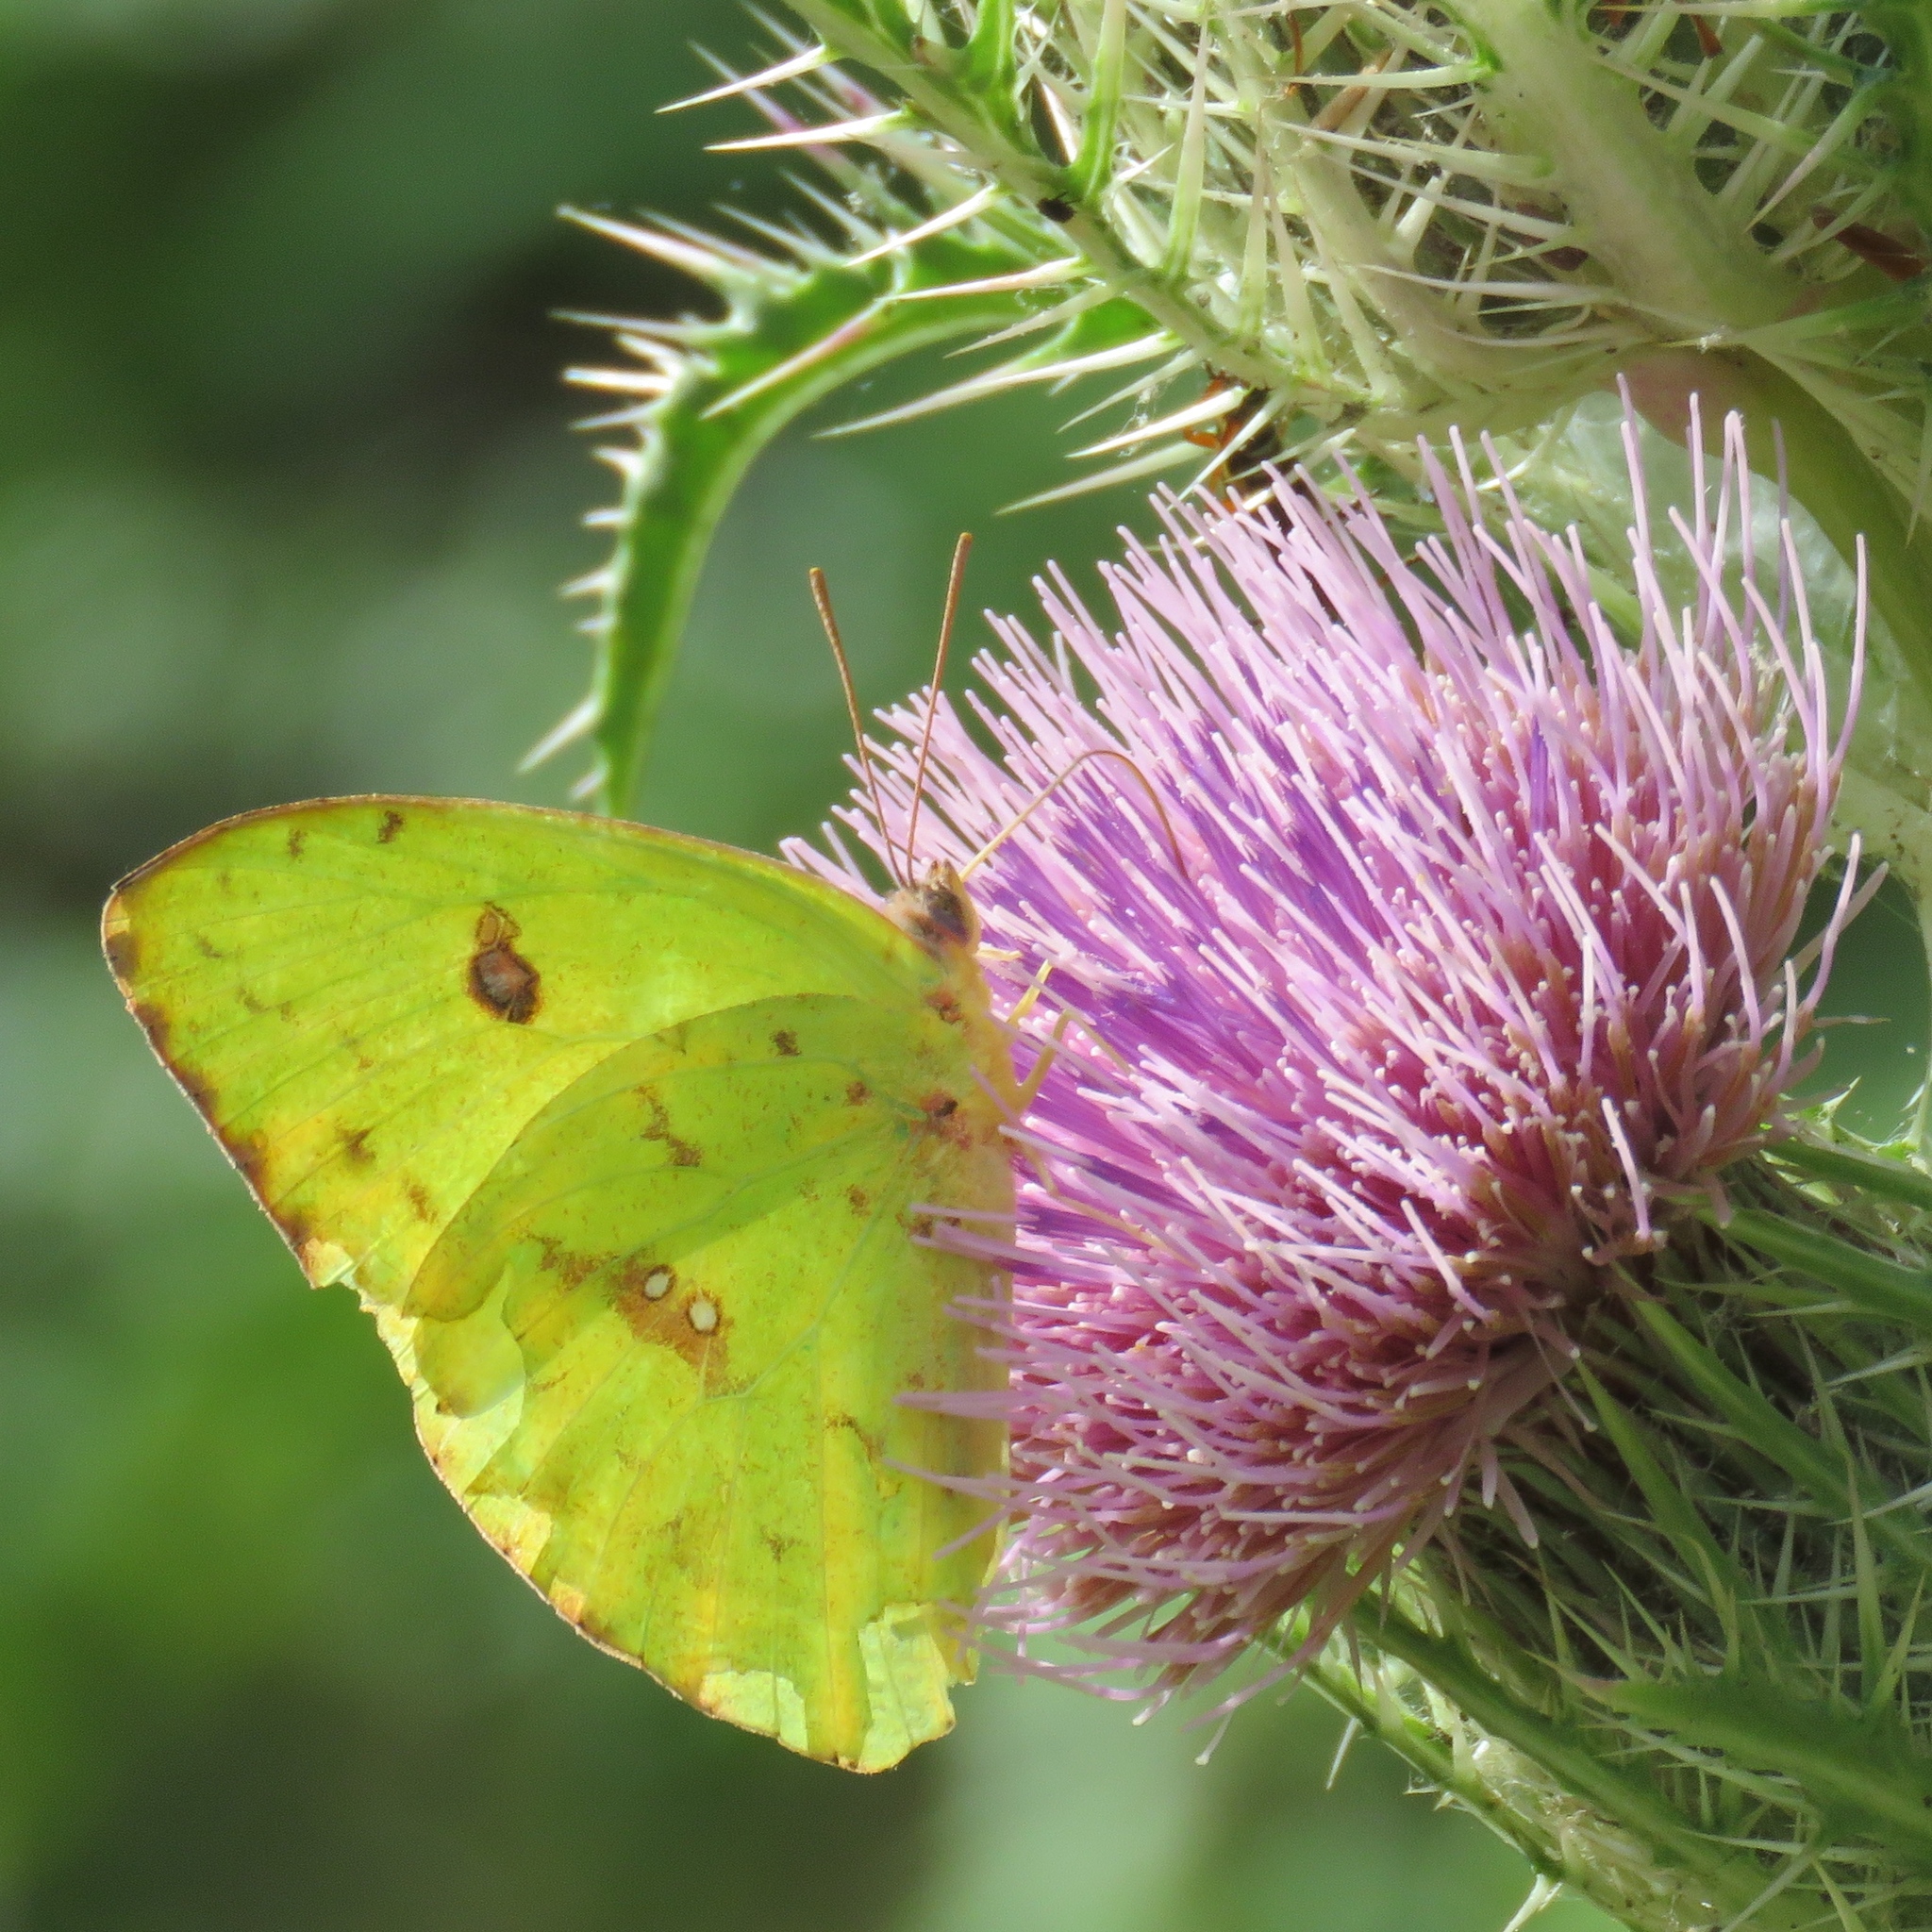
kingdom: Animalia
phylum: Arthropoda
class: Insecta
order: Lepidoptera
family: Pieridae
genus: Phoebis
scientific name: Phoebis sennae
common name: Cloudless sulphur
